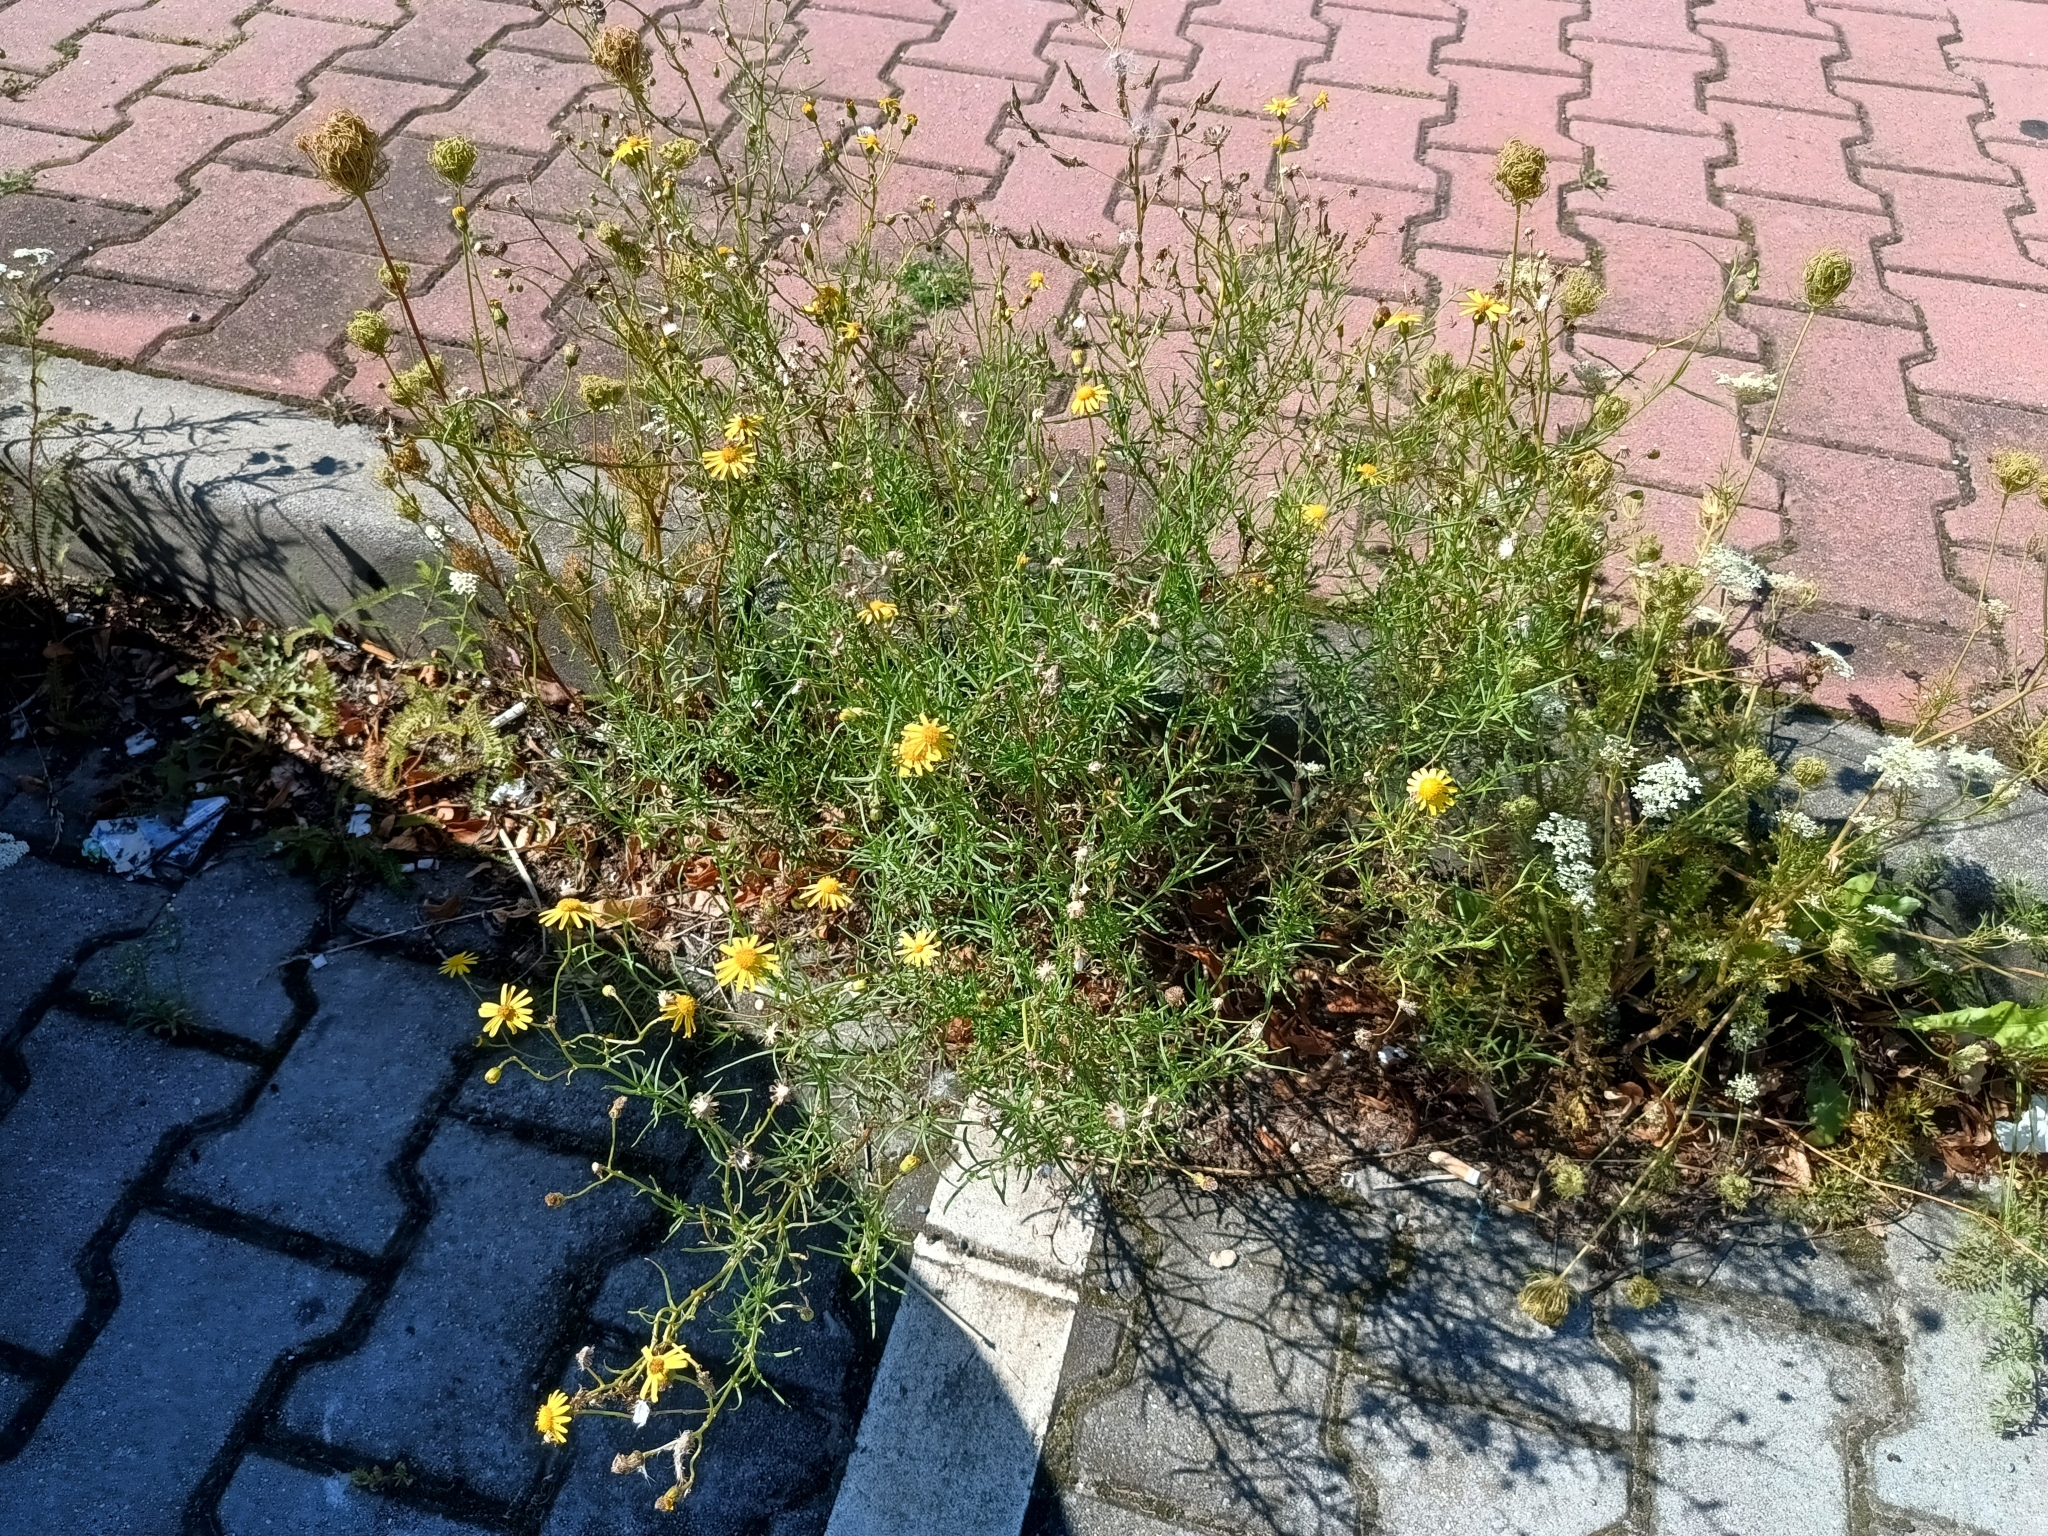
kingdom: Plantae
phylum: Tracheophyta
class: Magnoliopsida
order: Asterales
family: Asteraceae
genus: Senecio
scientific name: Senecio inaequidens
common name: Narrow-leaved ragwort
